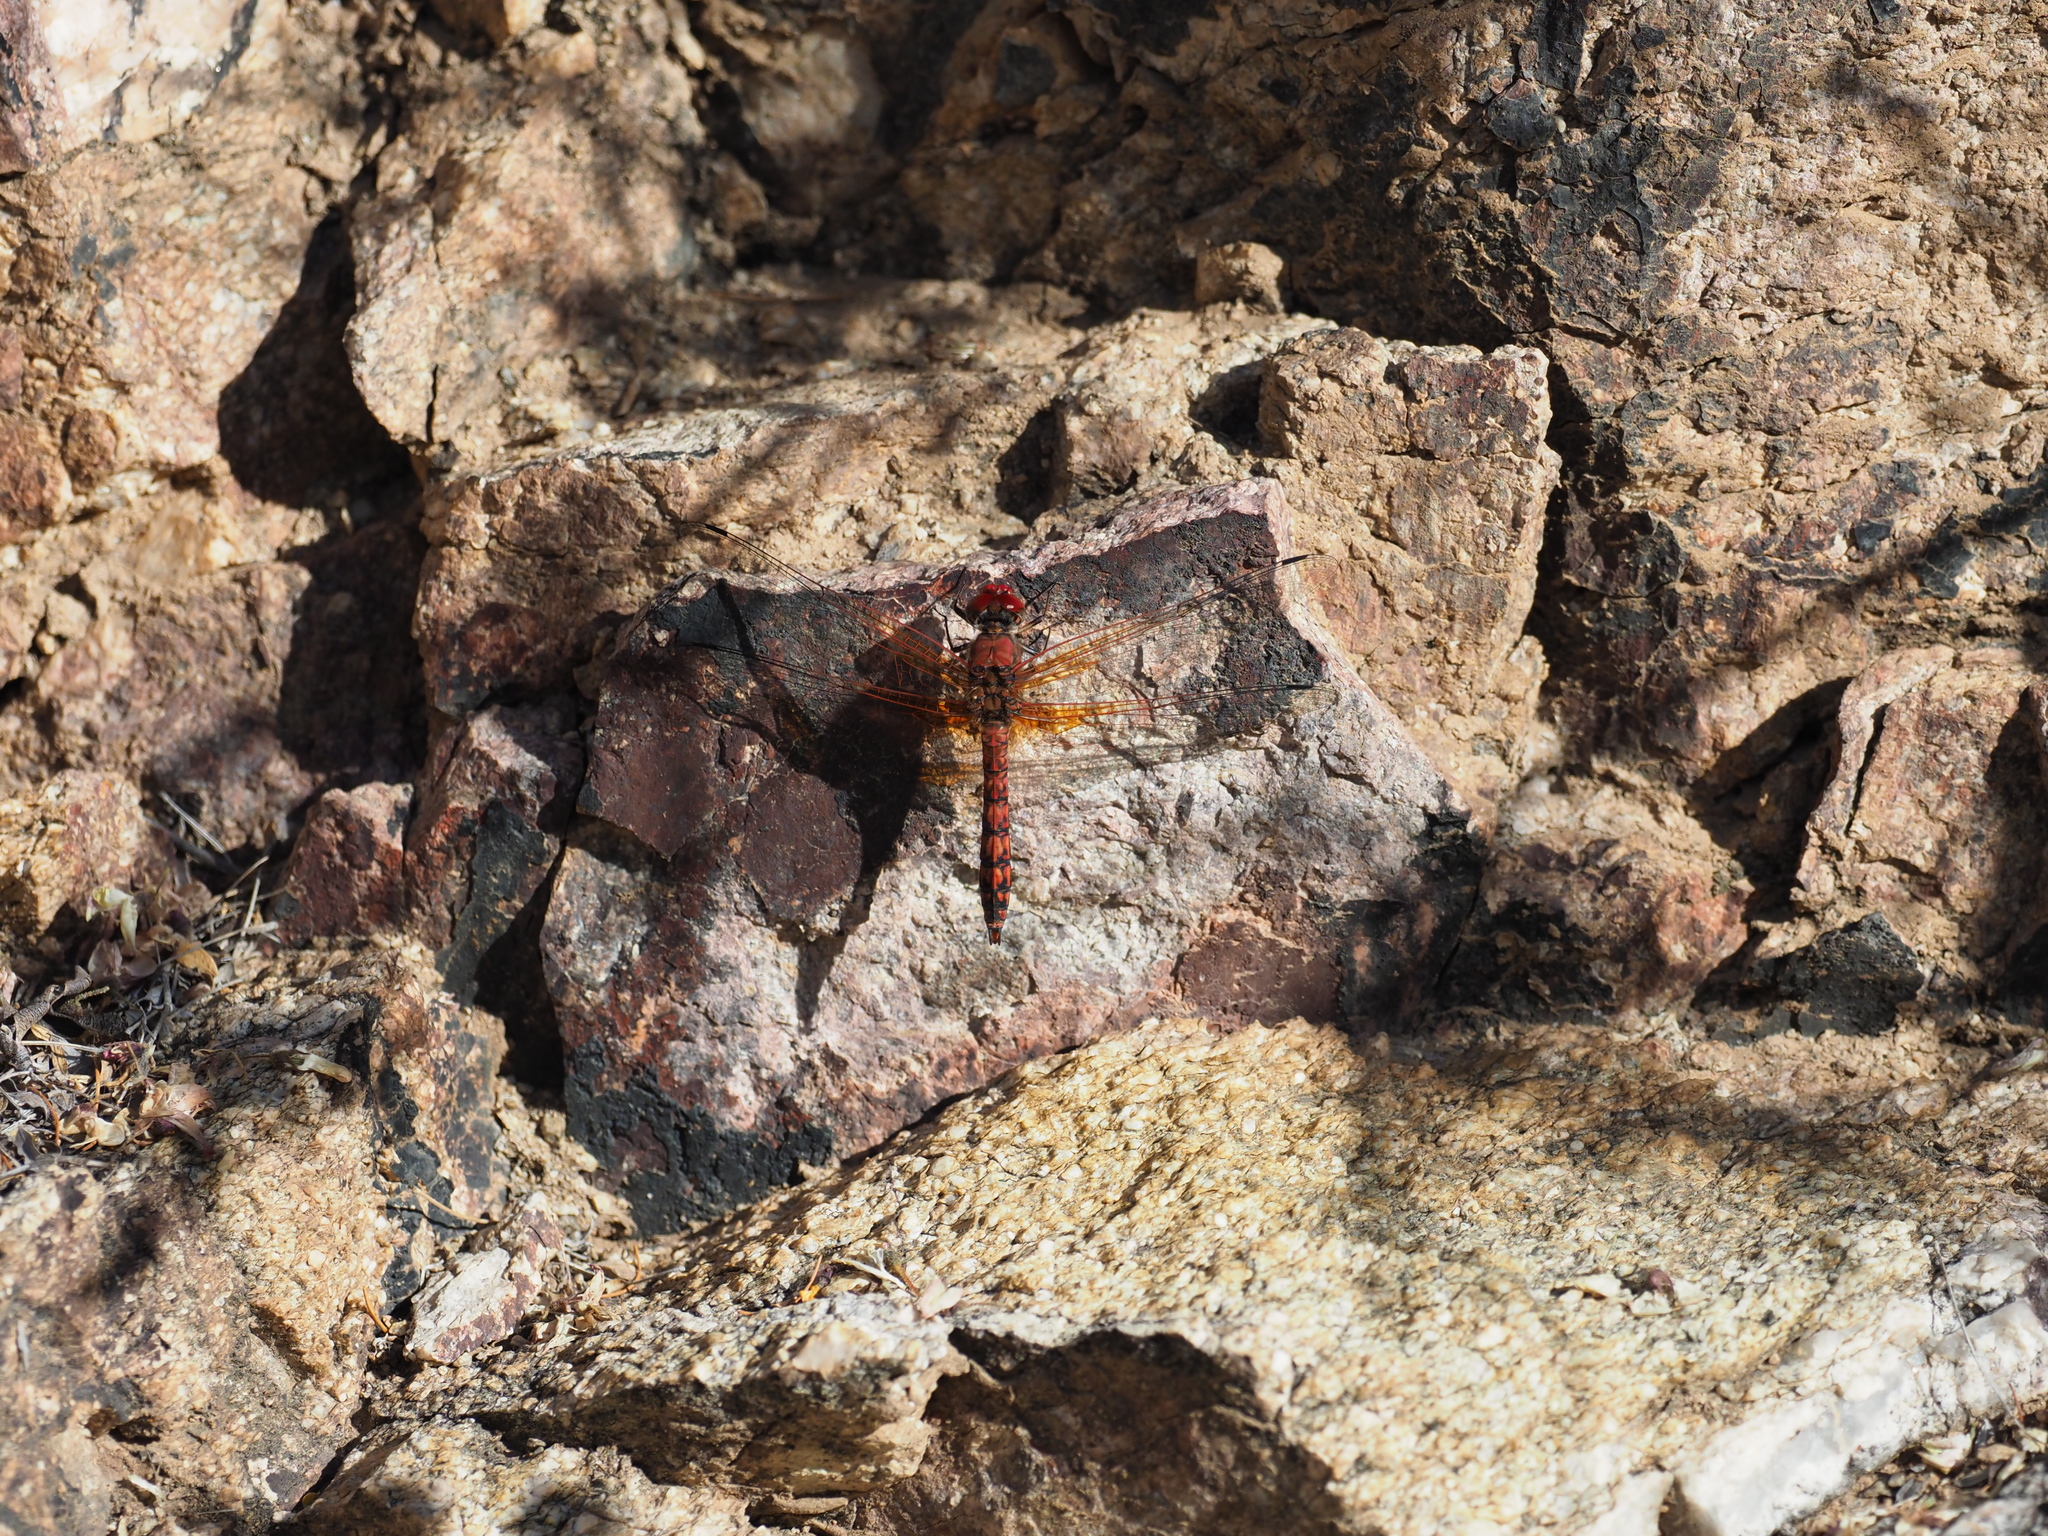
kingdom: Animalia
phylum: Arthropoda
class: Insecta
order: Odonata
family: Libellulidae
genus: Paltothemis
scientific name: Paltothemis lineatipes
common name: Red rock skimmer
